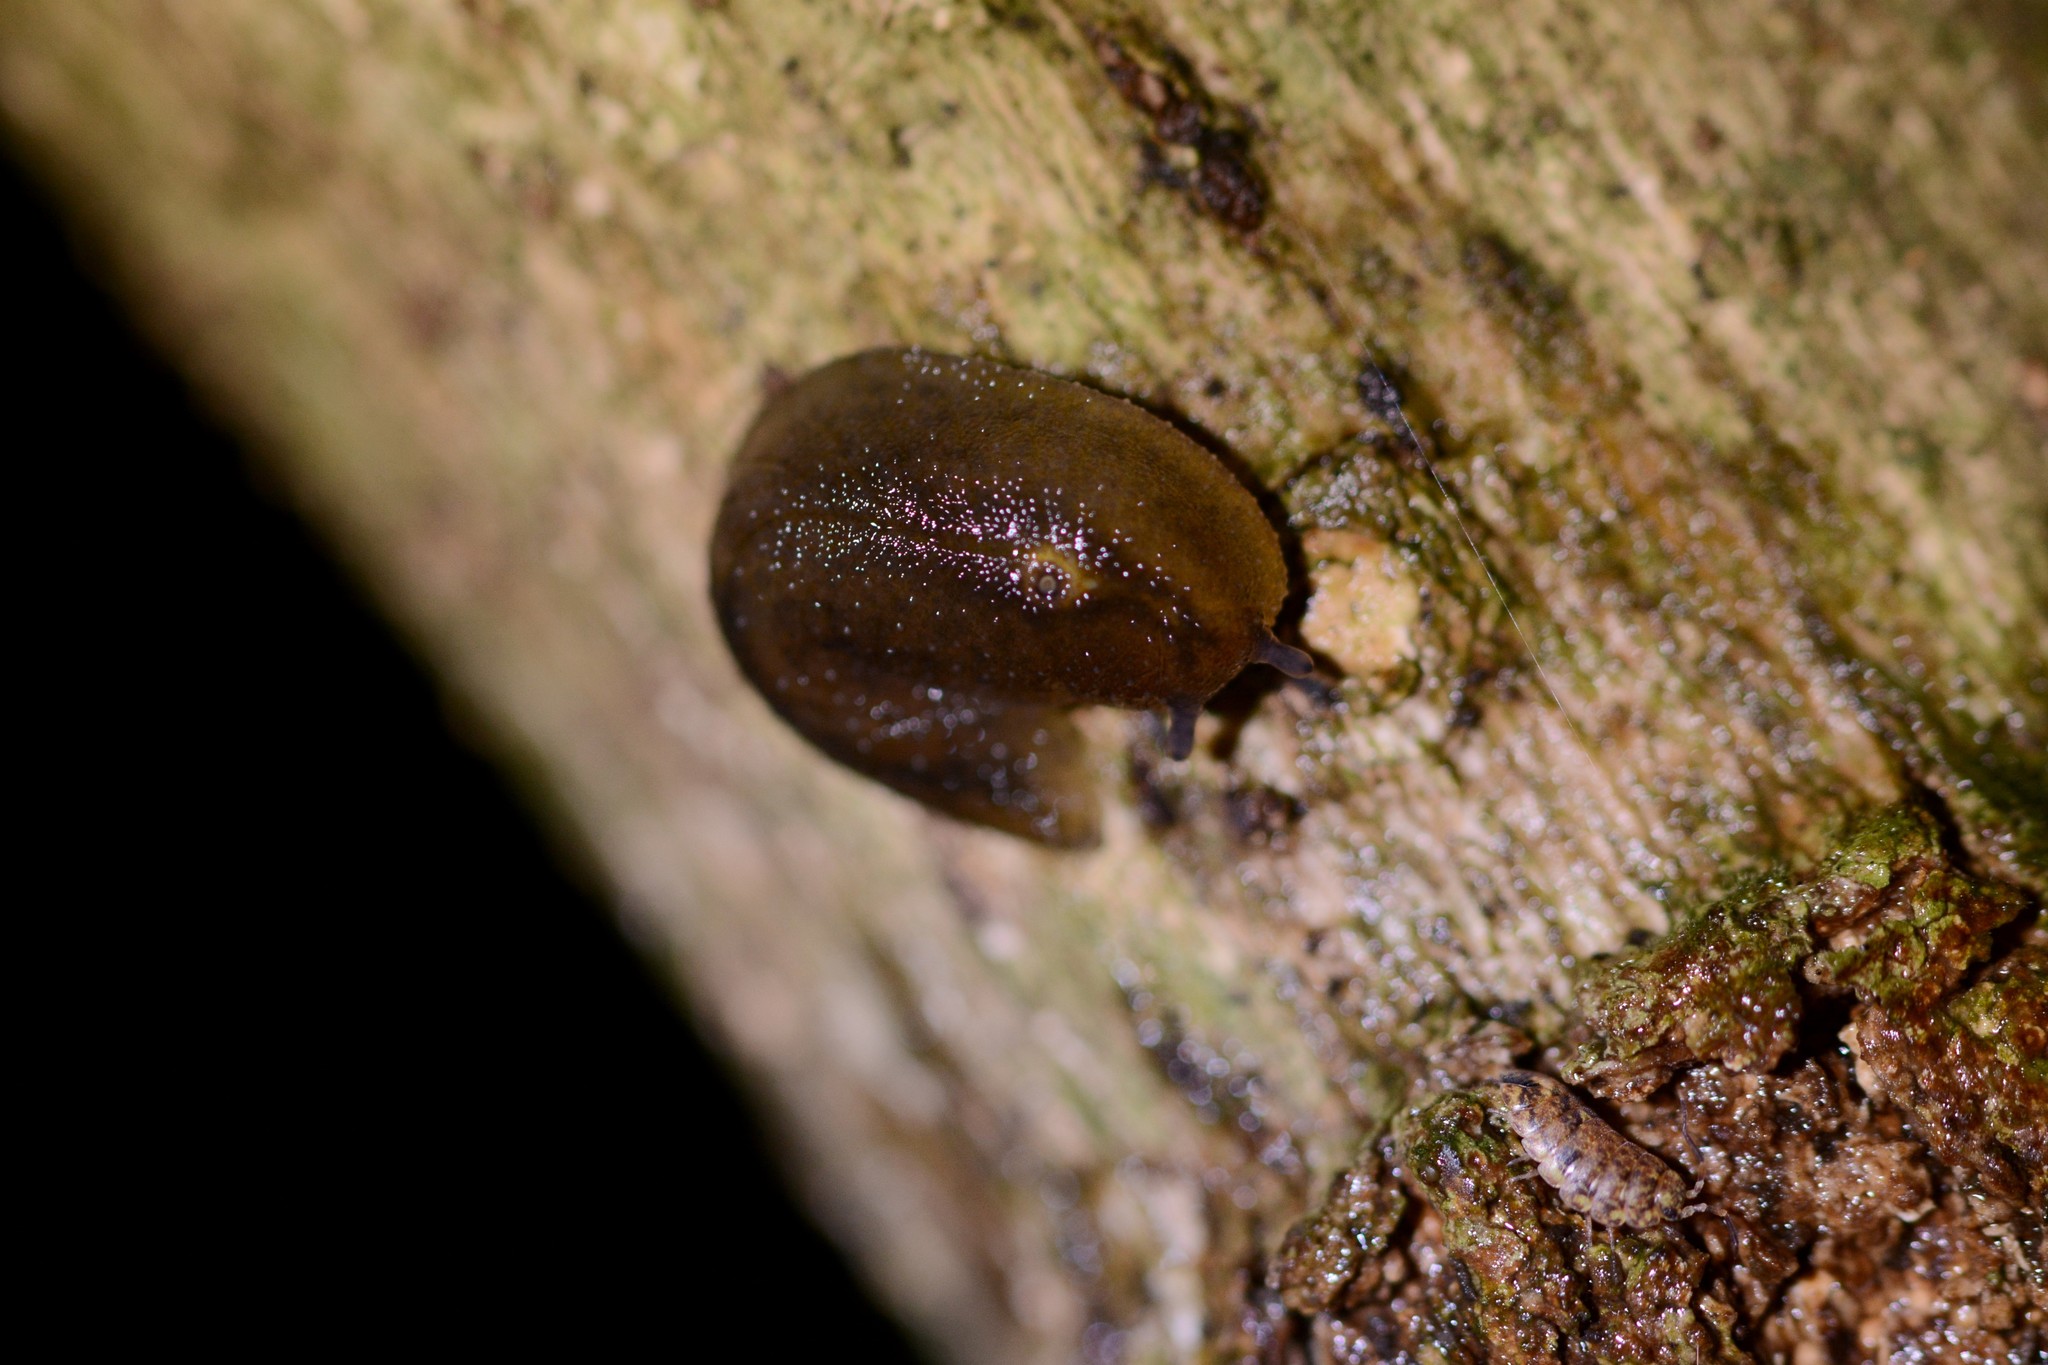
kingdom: Animalia
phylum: Mollusca
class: Gastropoda
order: Stylommatophora
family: Athoracophoridae
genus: Athoracophorus
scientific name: Athoracophorus papillatus
